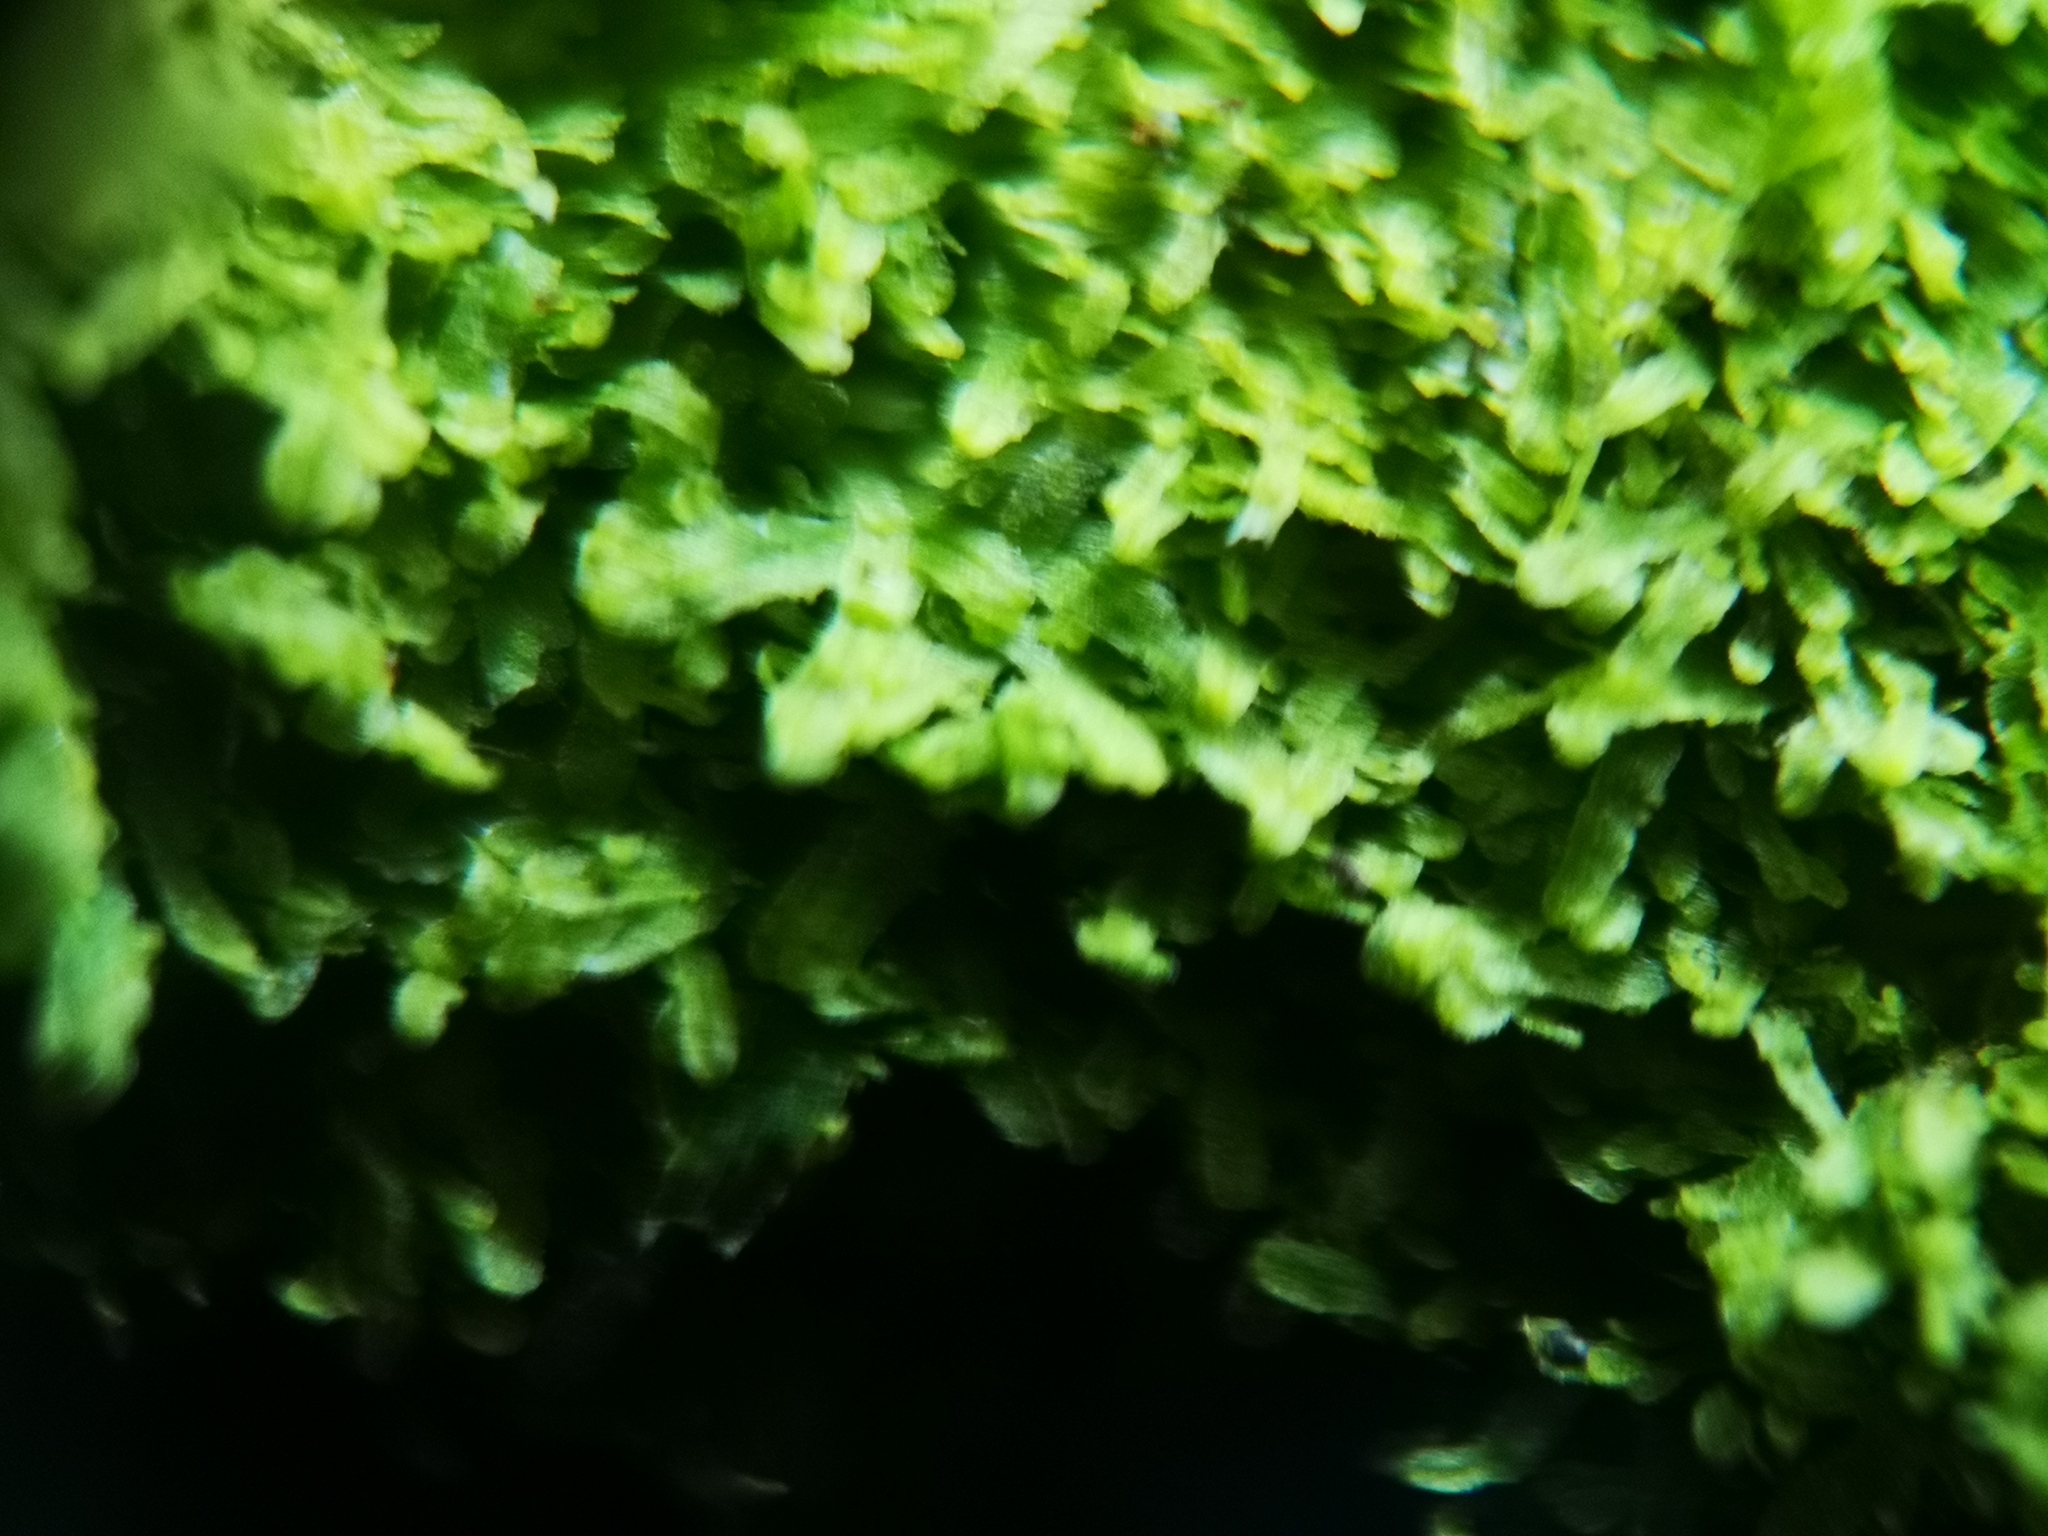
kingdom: Plantae
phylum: Marchantiophyta
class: Jungermanniopsida
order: Metzgeriales
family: Metzgeriaceae
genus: Metzgeria
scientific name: Metzgeria furcata
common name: Forked veilwort
